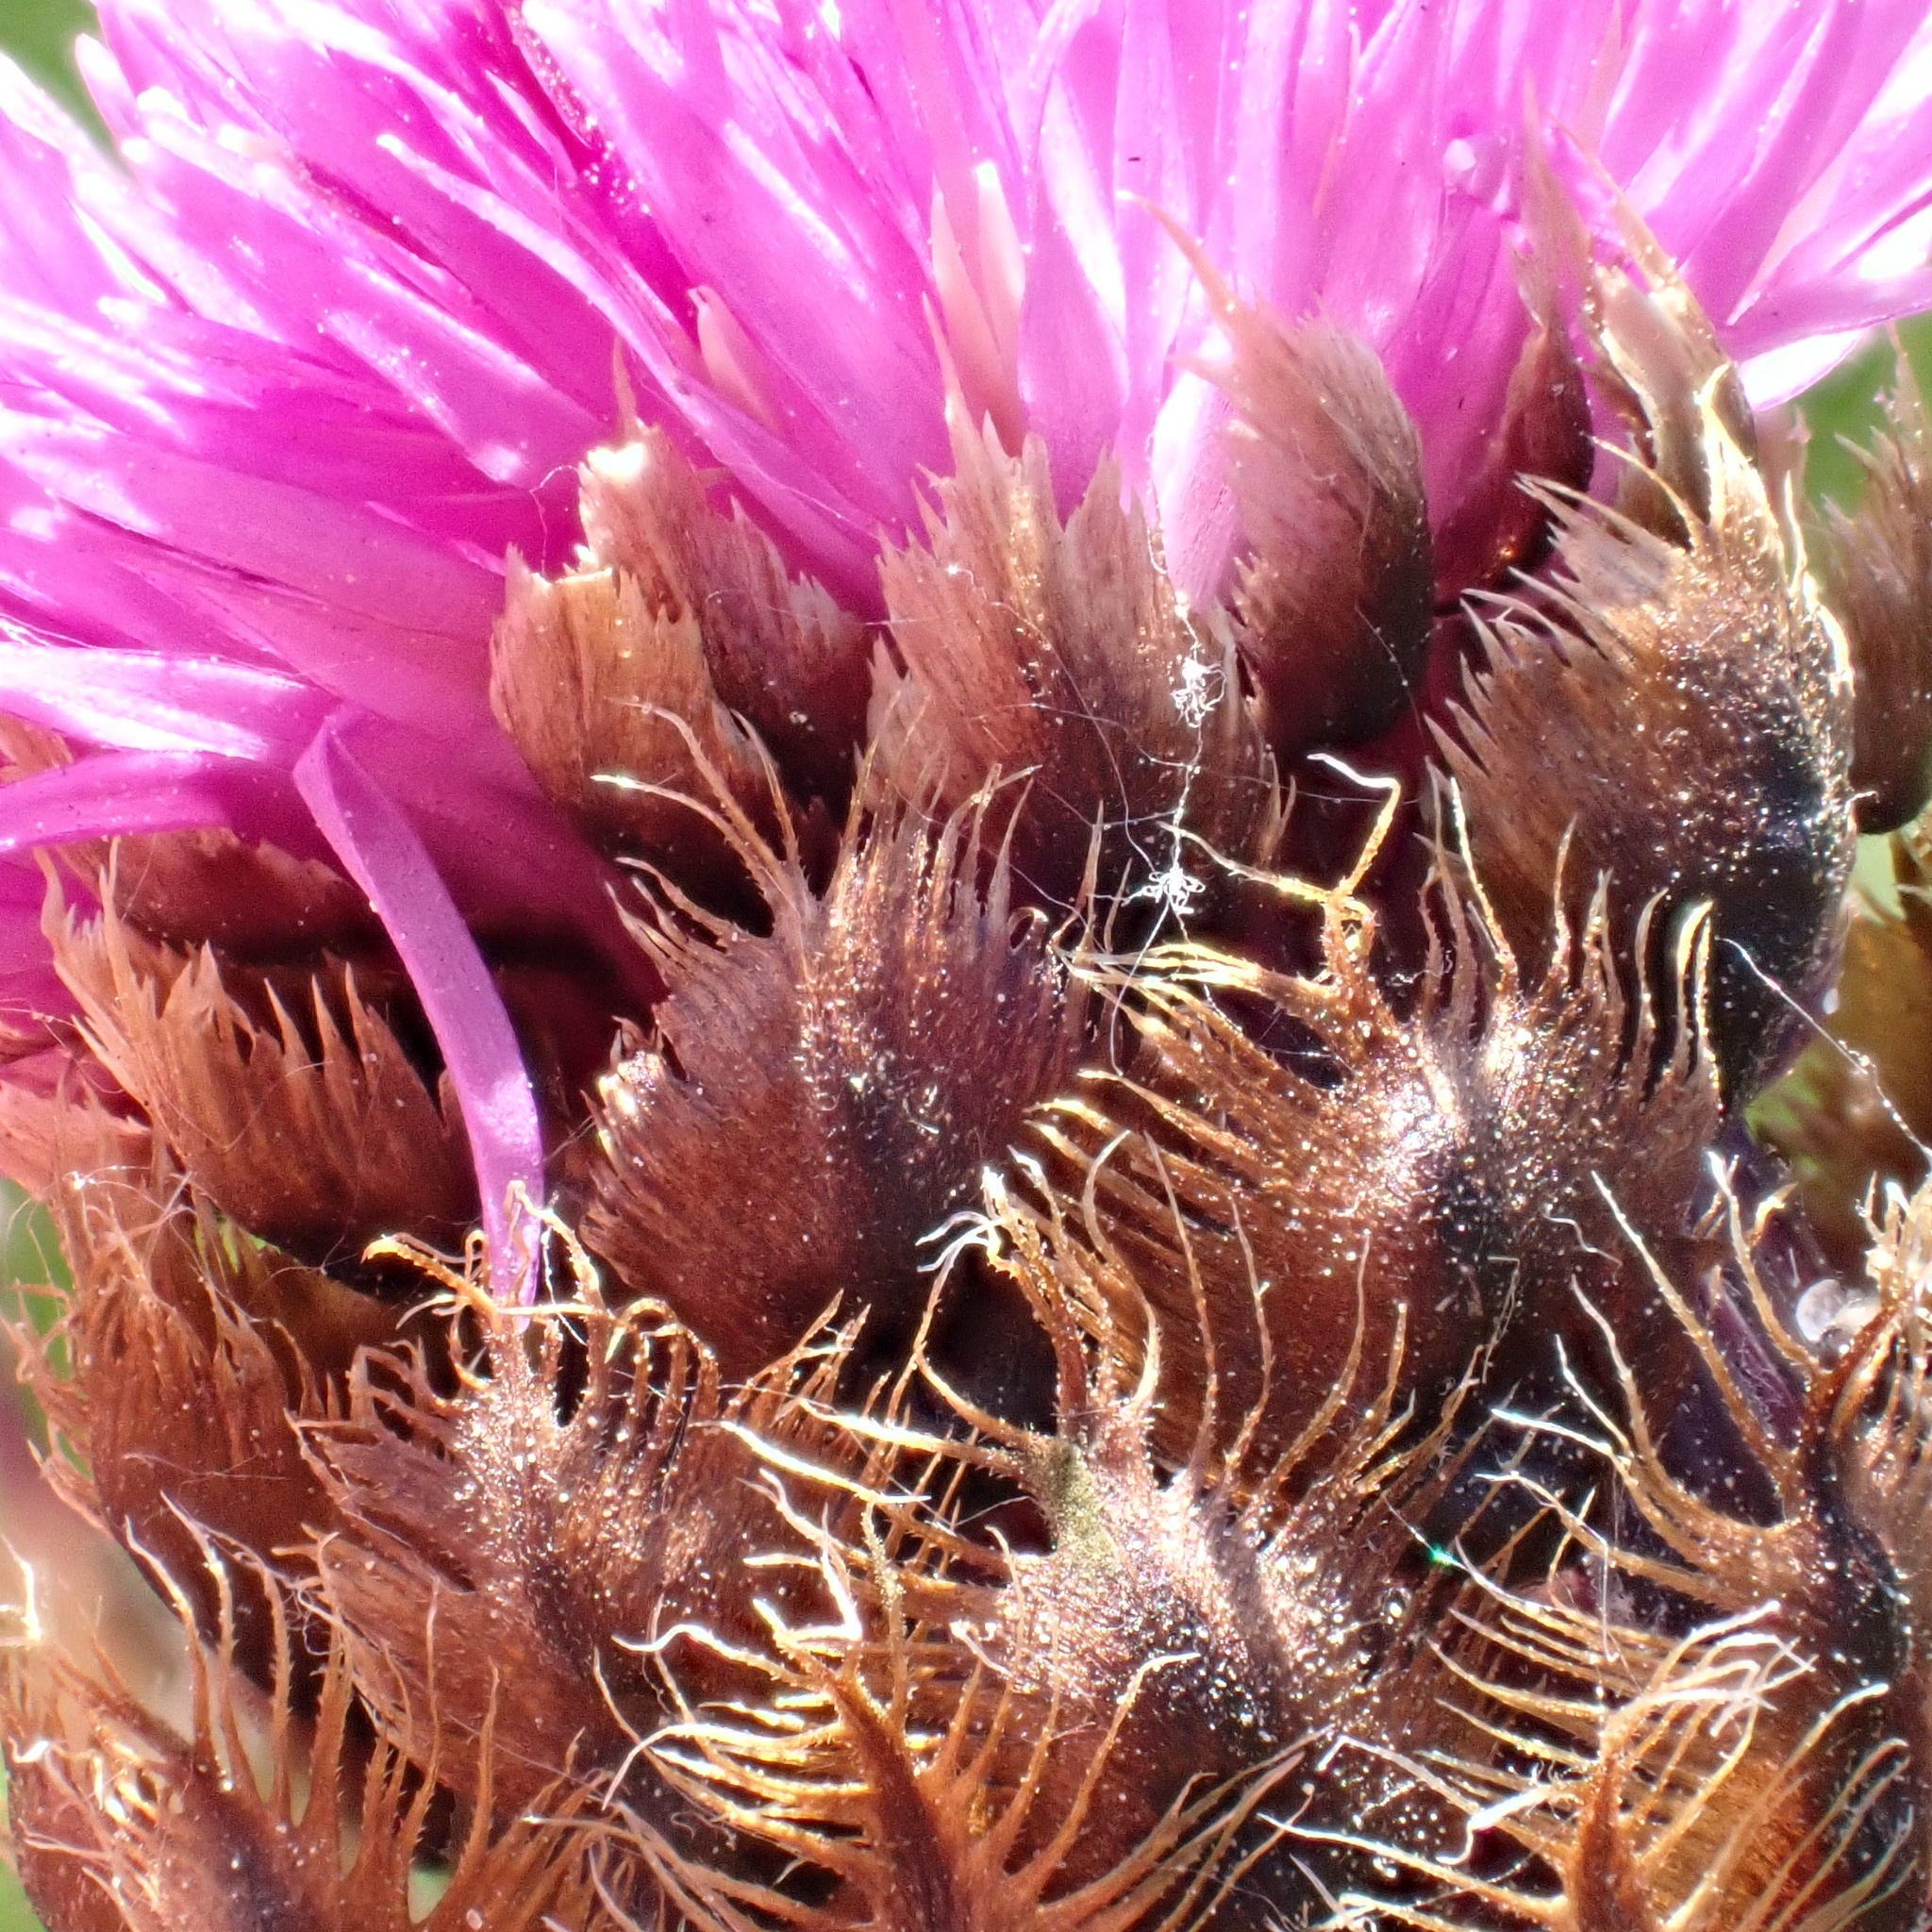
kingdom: Plantae
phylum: Tracheophyta
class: Magnoliopsida
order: Asterales
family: Asteraceae
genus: Centaurea
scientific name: Centaurea nigra
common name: Lesser knapweed
